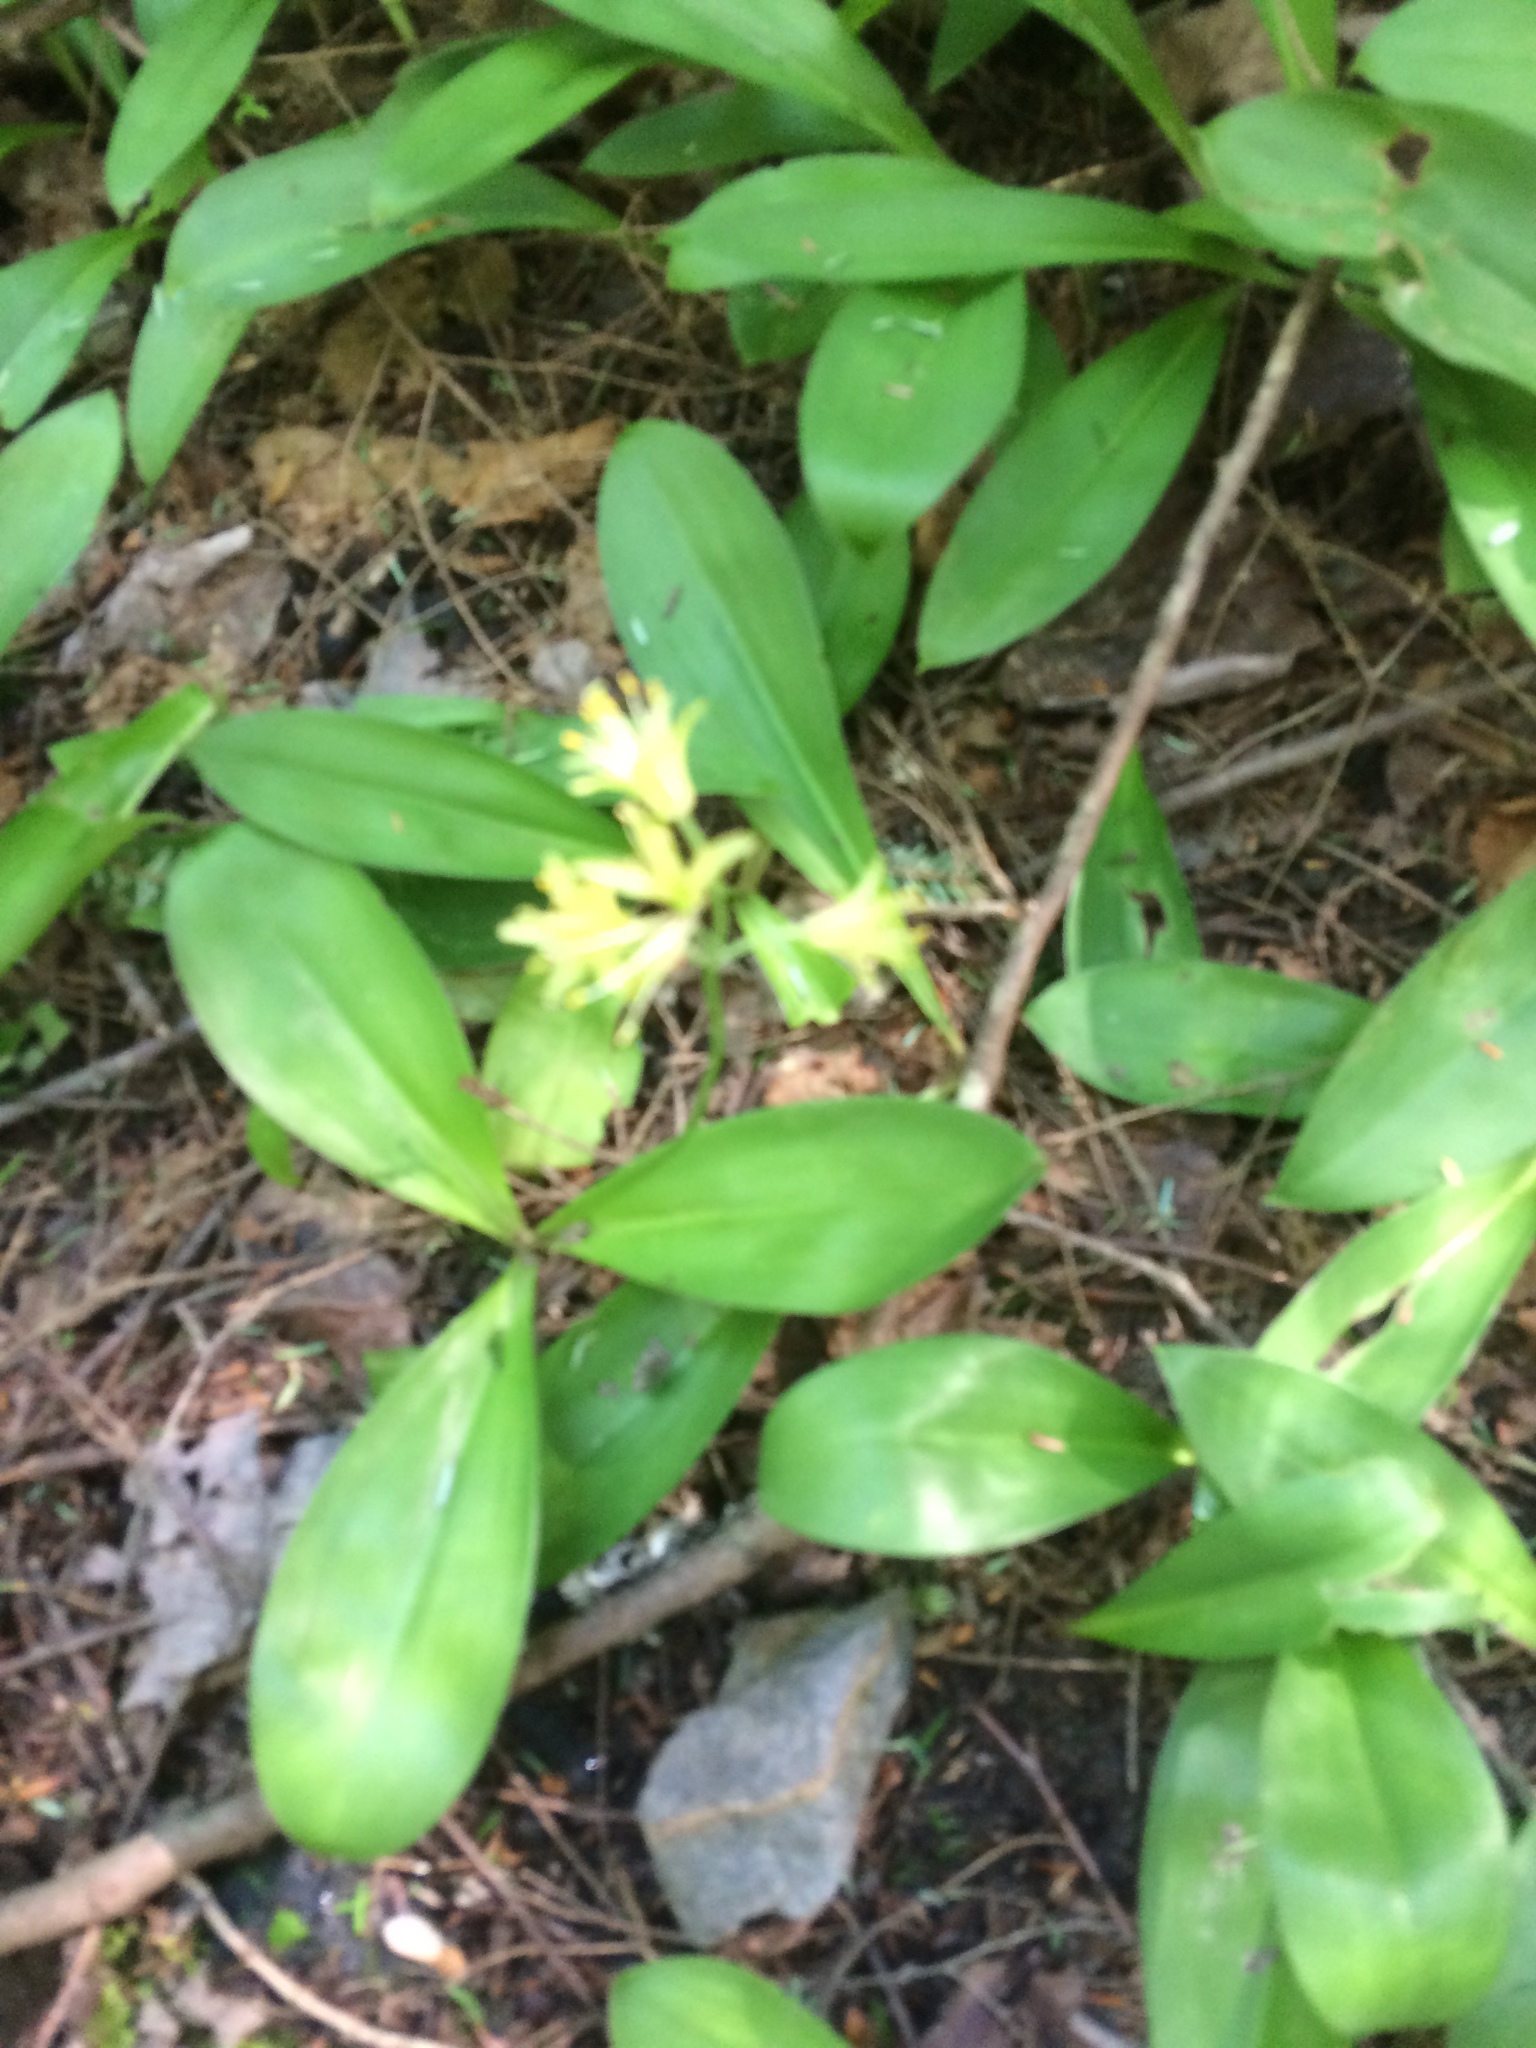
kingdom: Plantae
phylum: Tracheophyta
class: Liliopsida
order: Liliales
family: Liliaceae
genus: Clintonia
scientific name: Clintonia borealis
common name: Yellow clintonia
